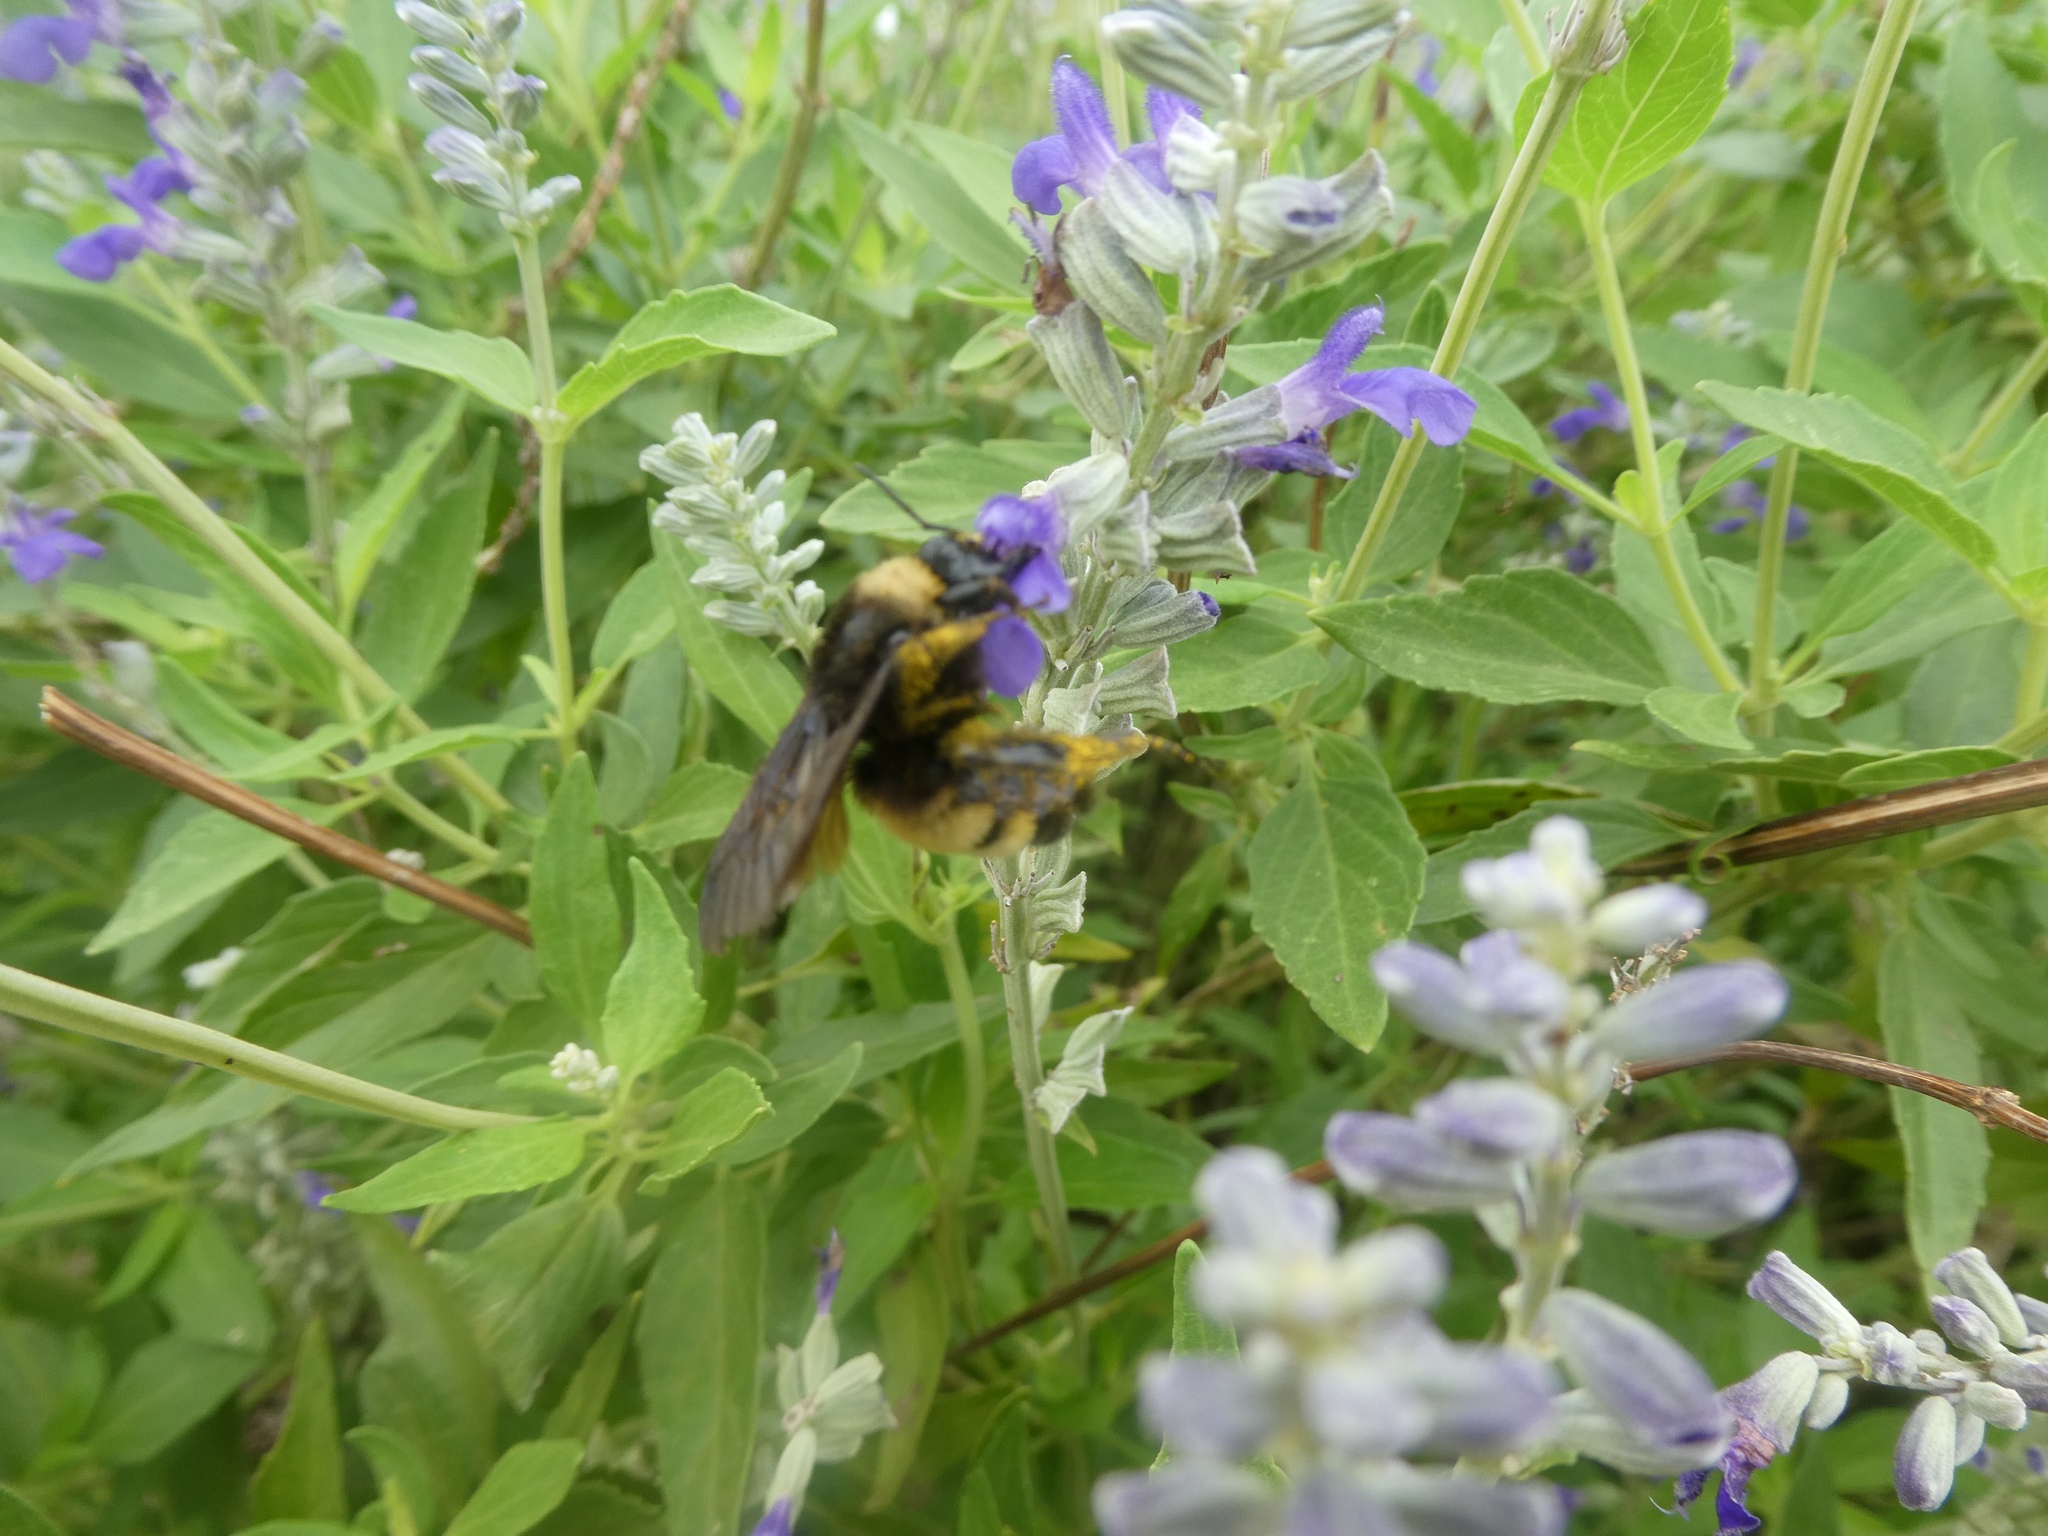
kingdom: Animalia
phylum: Arthropoda
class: Insecta
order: Hymenoptera
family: Apidae
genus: Bombus
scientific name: Bombus pensylvanicus
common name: Bumble bee
